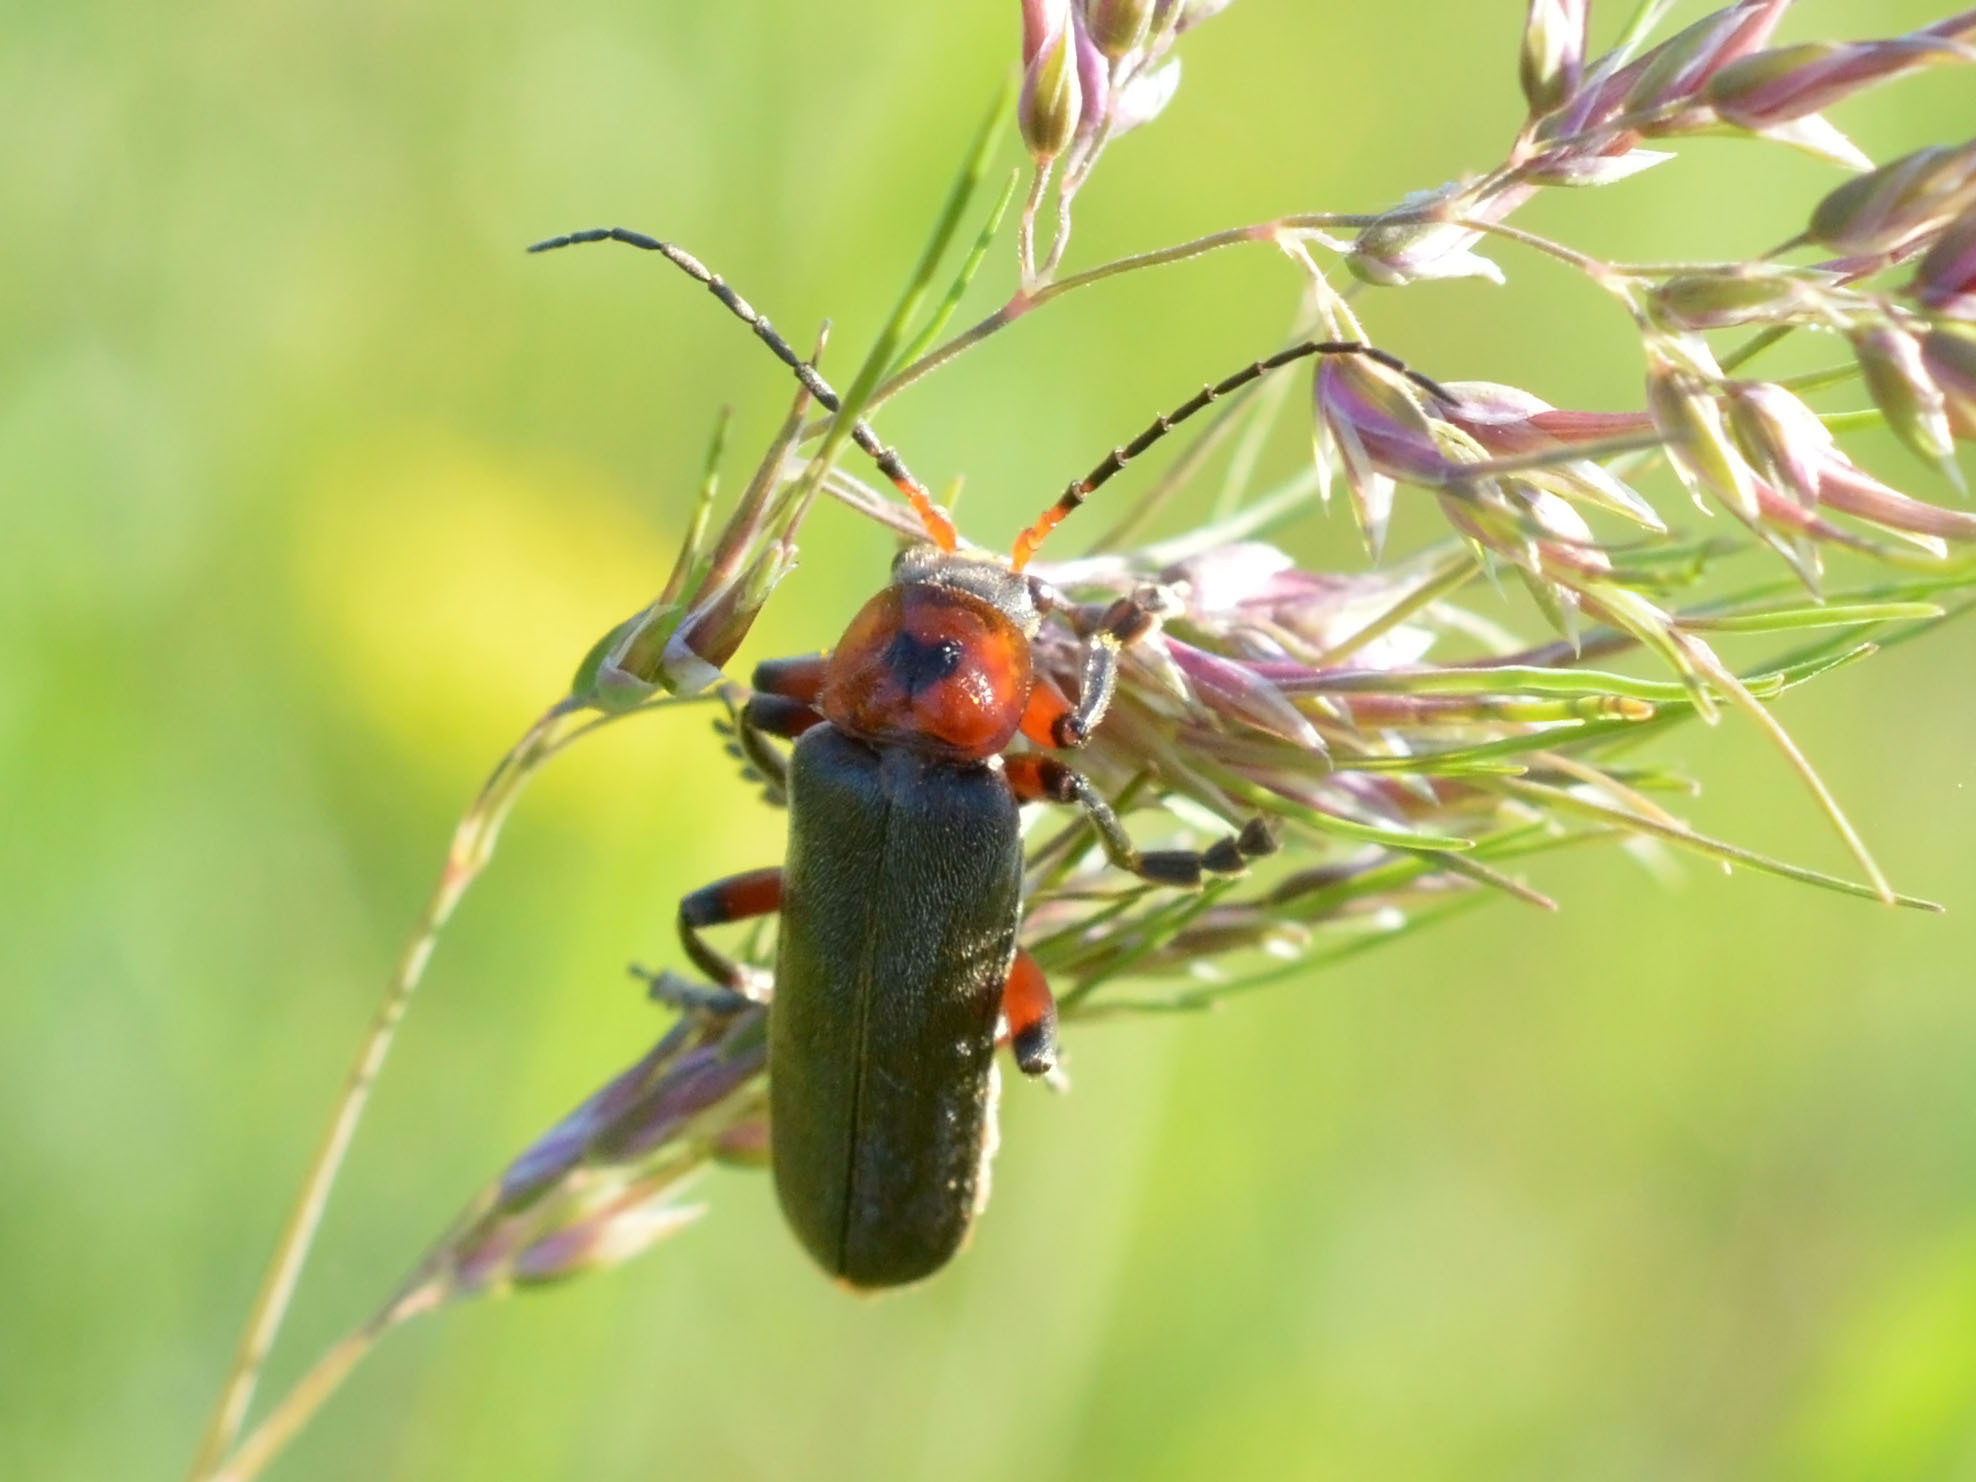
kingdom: Animalia
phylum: Arthropoda
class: Insecta
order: Coleoptera
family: Cantharidae
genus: Cantharis
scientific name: Cantharis rustica
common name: Soldier beetle
